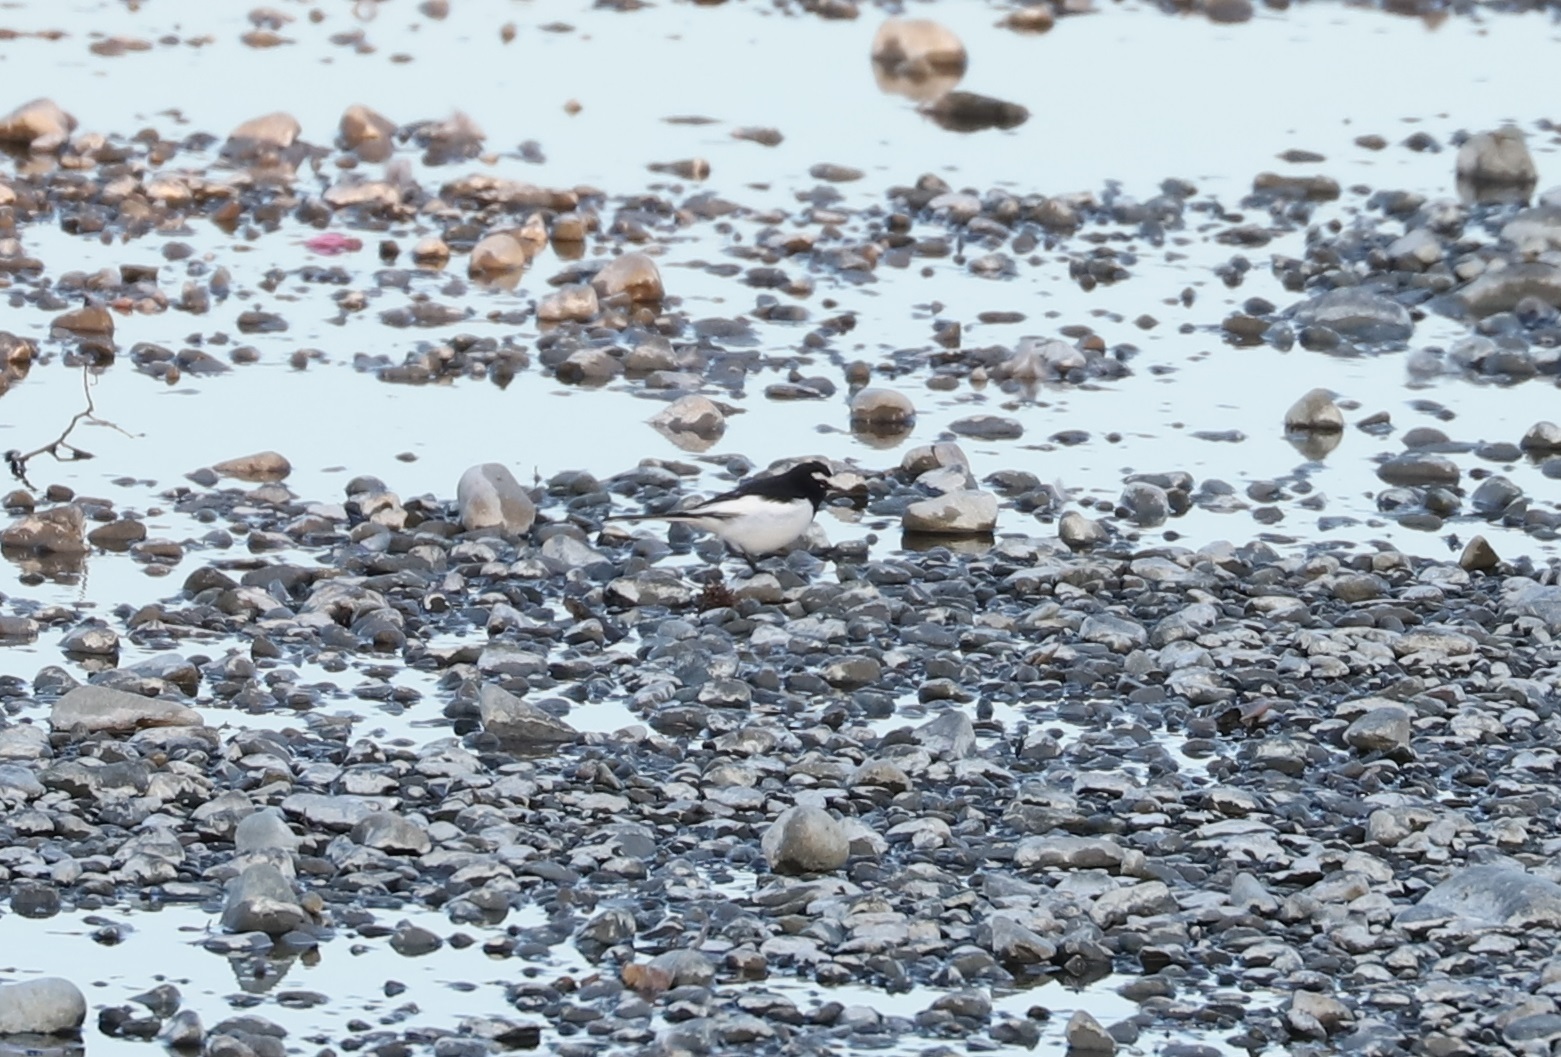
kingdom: Animalia
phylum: Chordata
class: Aves
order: Passeriformes
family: Motacillidae
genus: Motacilla
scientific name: Motacilla grandis
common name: Japanese wagtail
